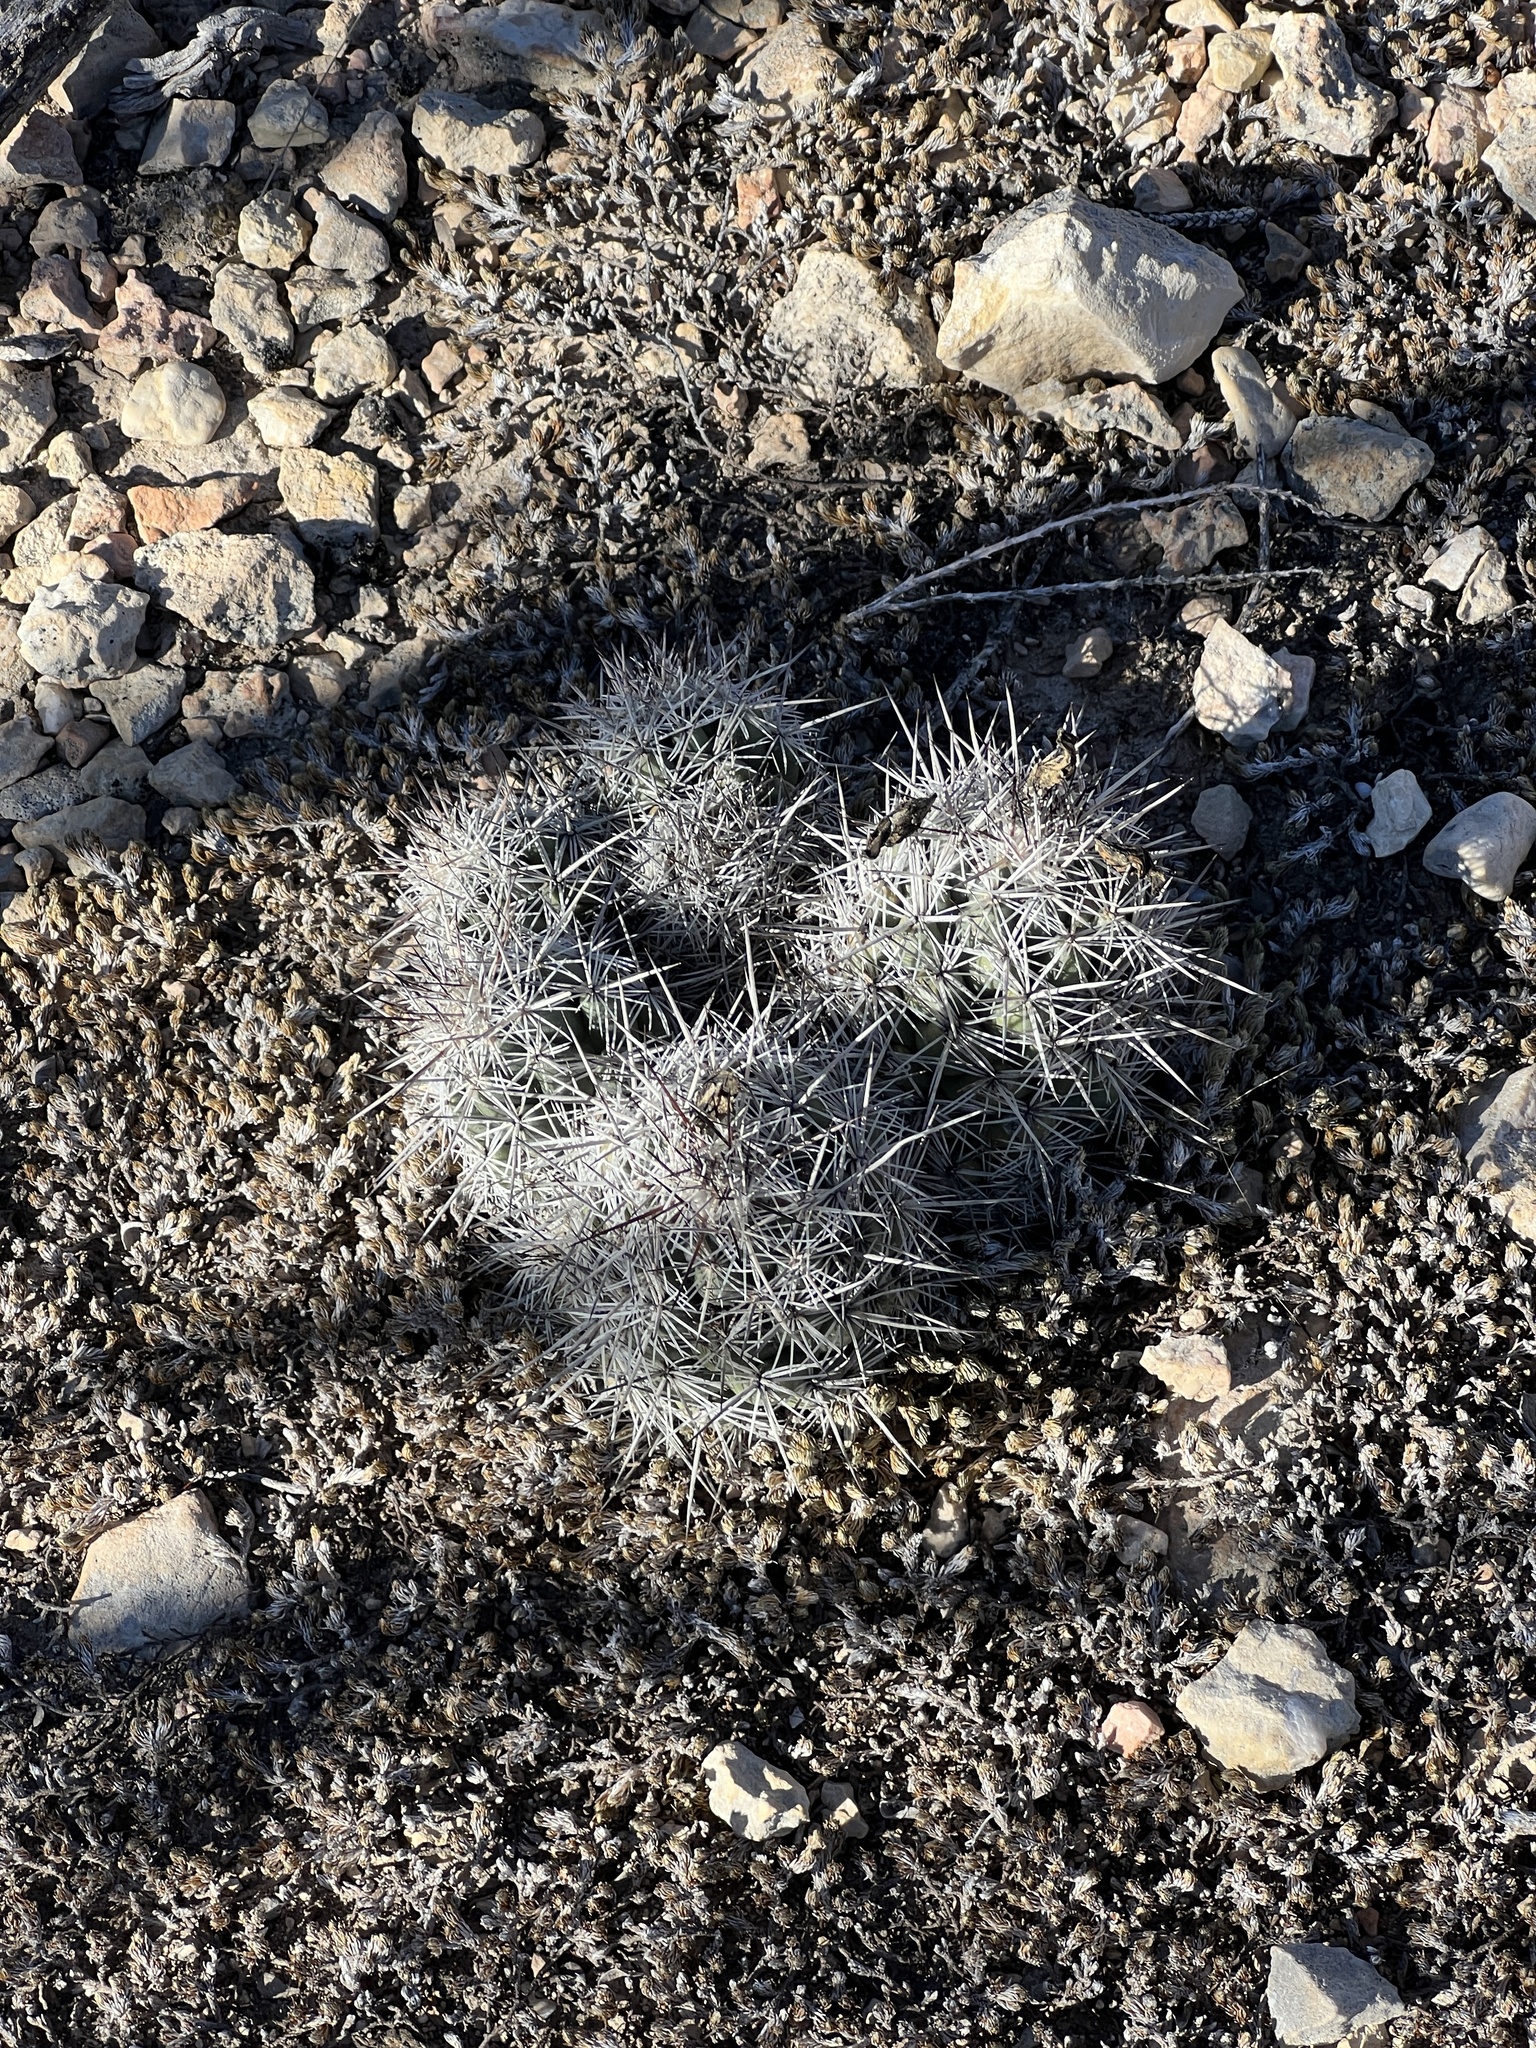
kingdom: Plantae
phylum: Tracheophyta
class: Magnoliopsida
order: Caryophyllales
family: Cactaceae
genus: Cochemiea
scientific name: Cochemiea conoidea
